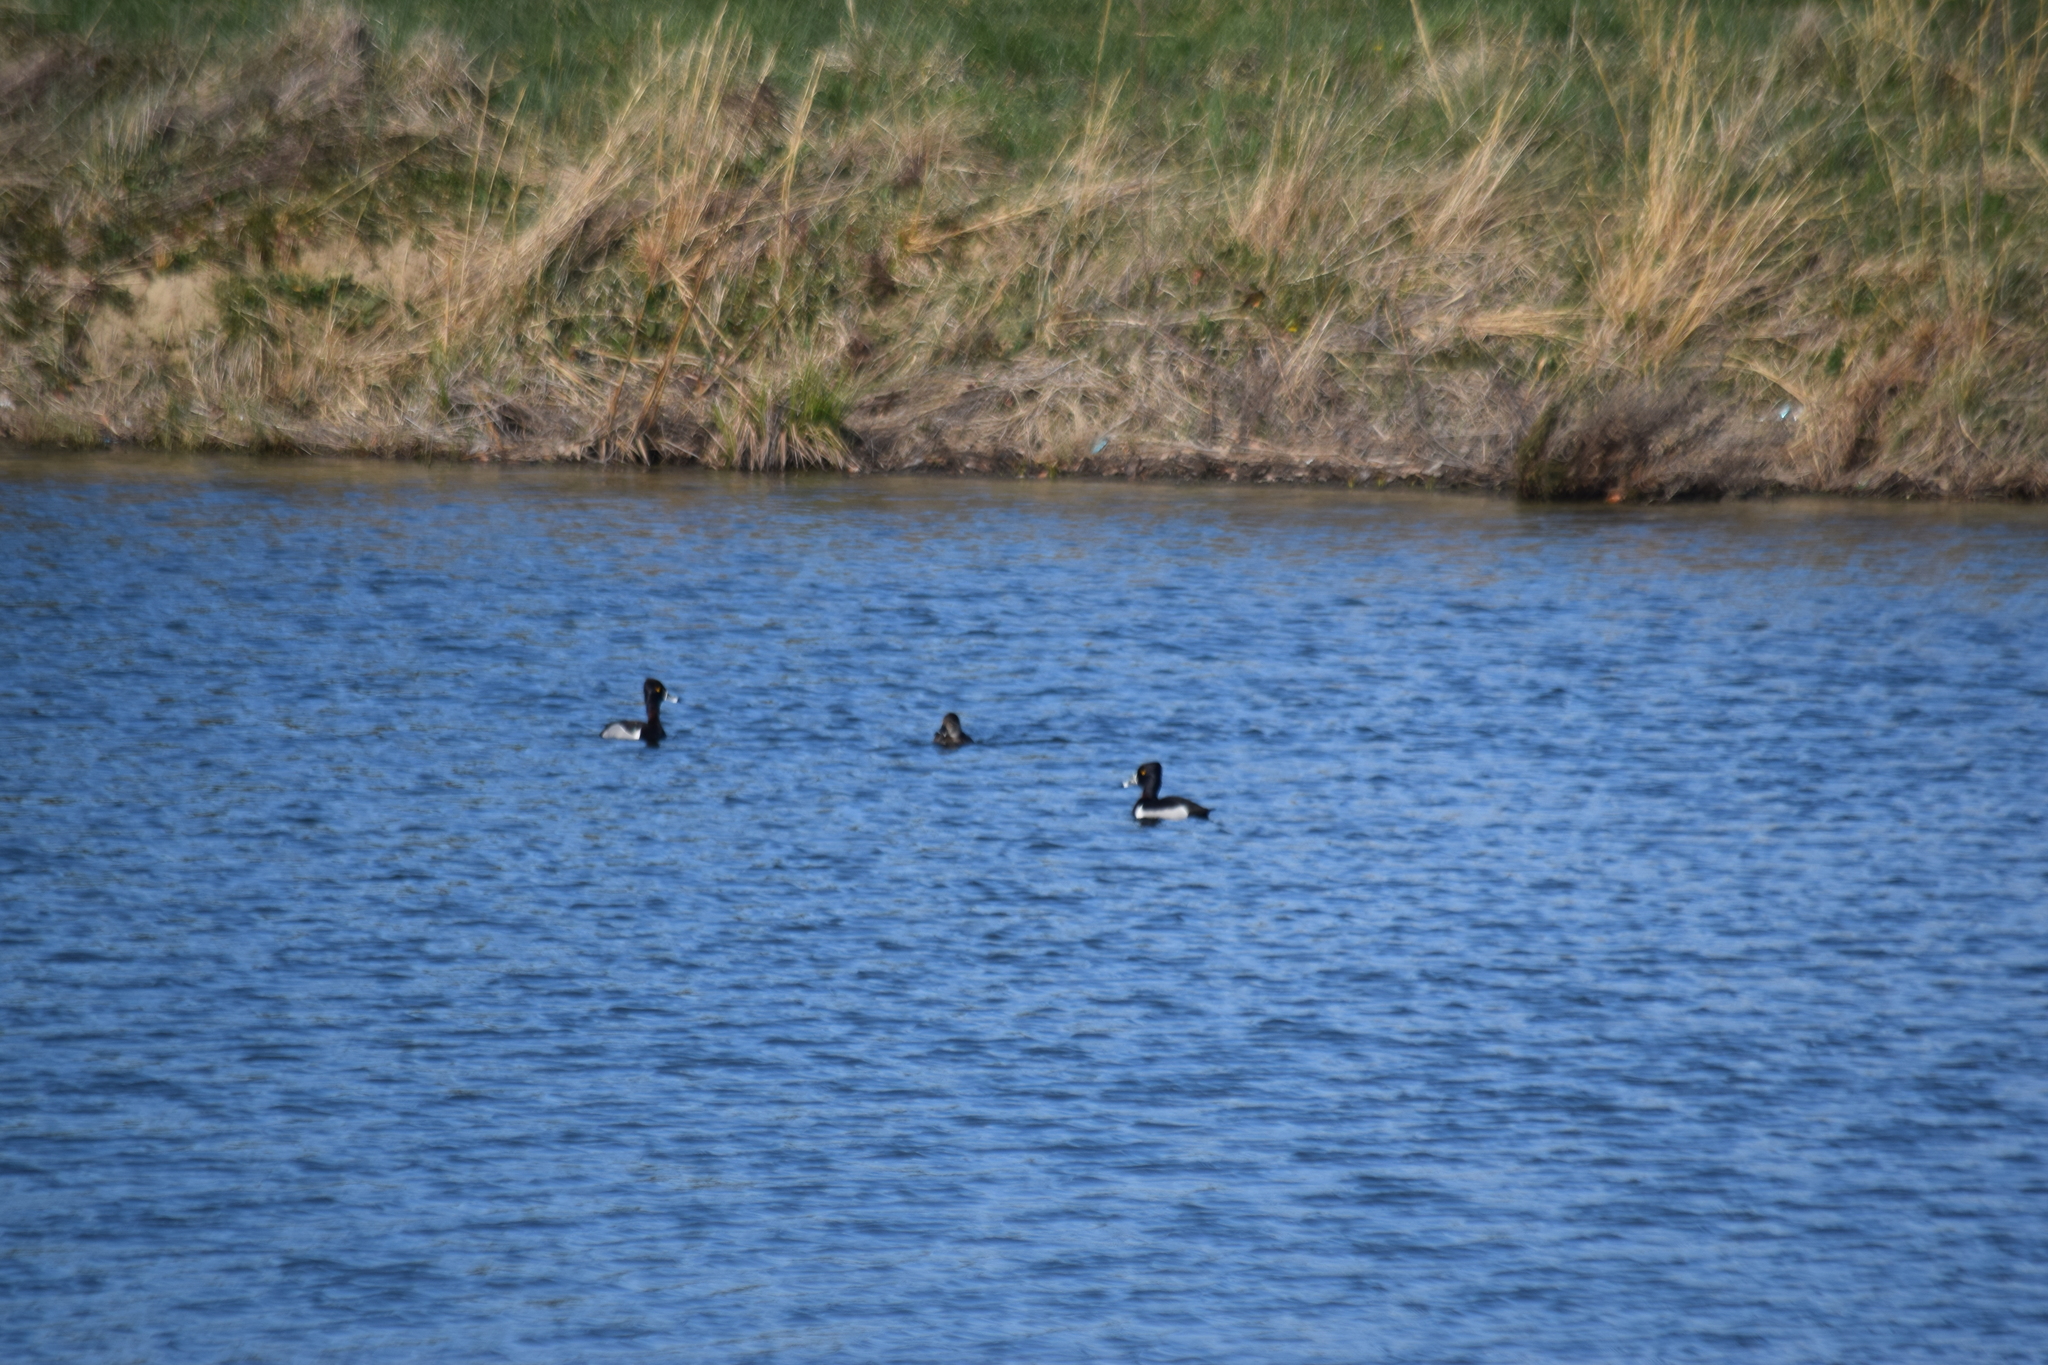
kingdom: Animalia
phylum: Chordata
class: Aves
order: Anseriformes
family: Anatidae
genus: Aythya
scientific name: Aythya collaris
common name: Ring-necked duck
